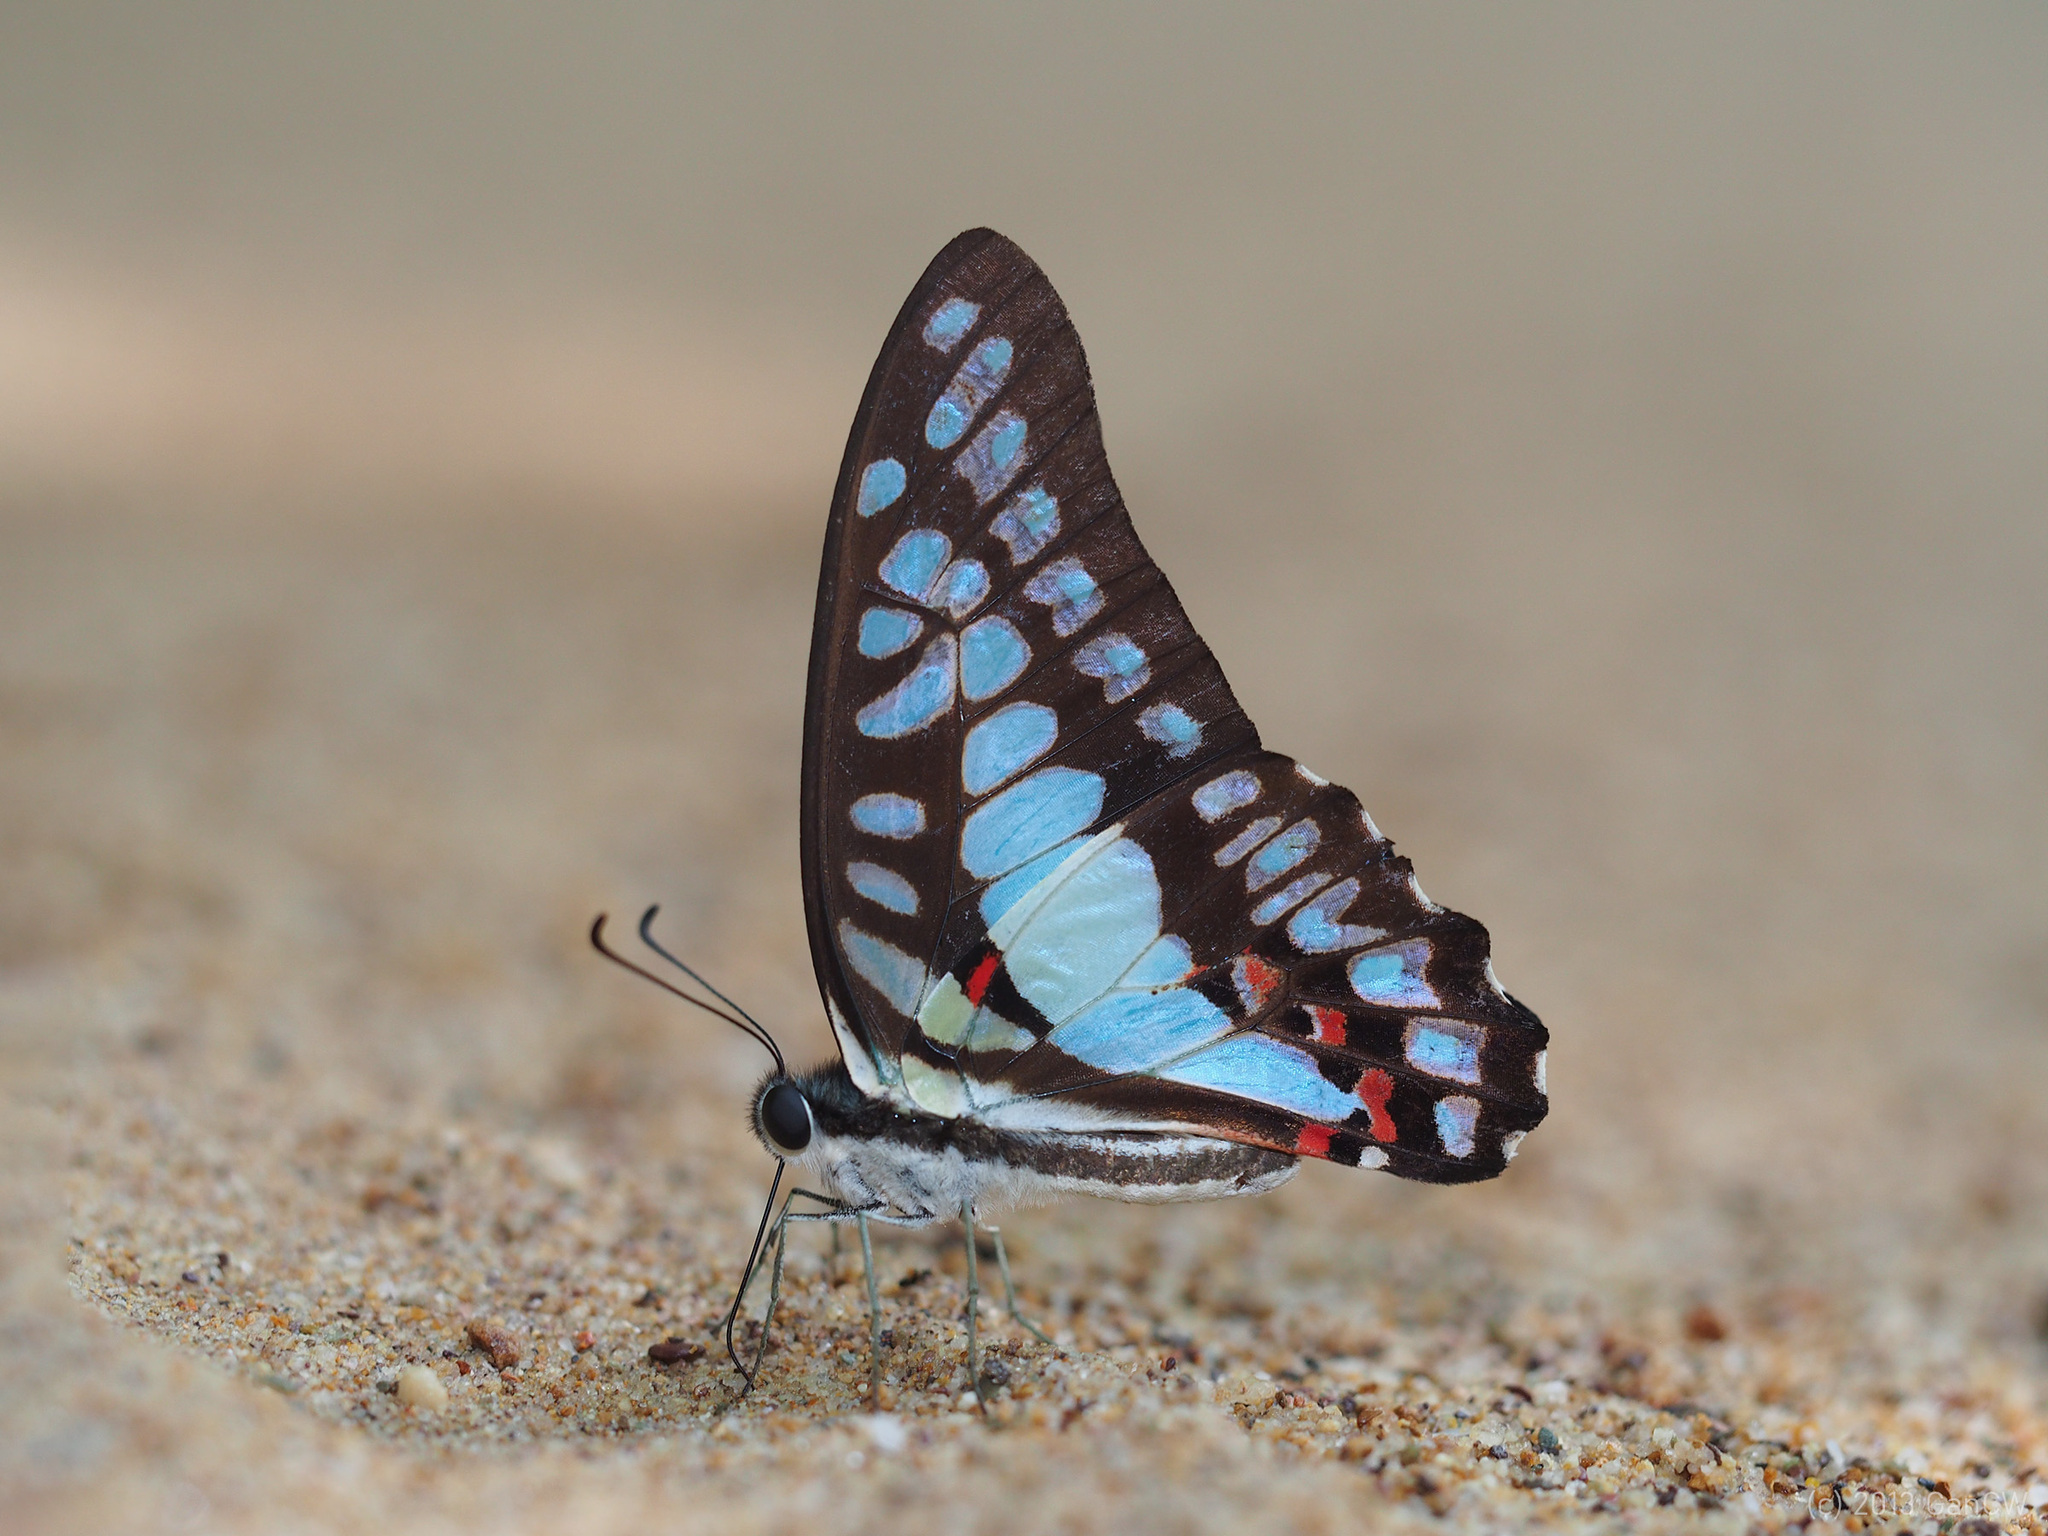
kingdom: Animalia
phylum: Arthropoda
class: Insecta
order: Lepidoptera
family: Papilionidae
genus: Graphium
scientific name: Graphium eurypylus
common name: Great jay
